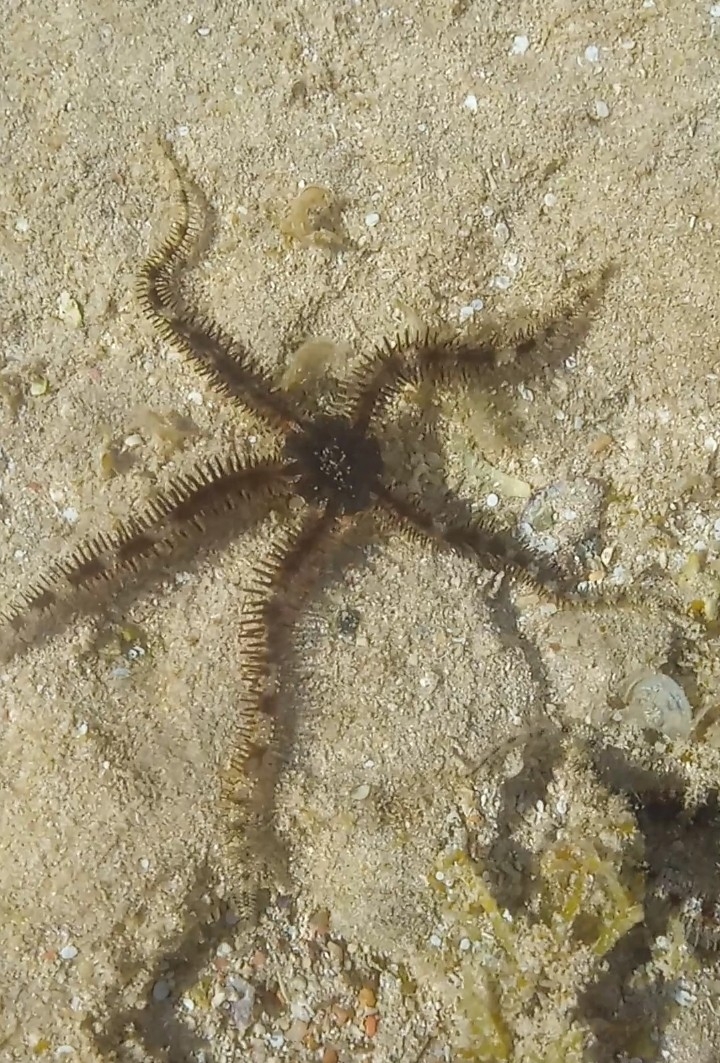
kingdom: Animalia
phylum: Echinodermata
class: Ophiuroidea
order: Ophiacanthida
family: Ophiocomidae
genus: Ophiocoma
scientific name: Ophiocoma scolopendrina
